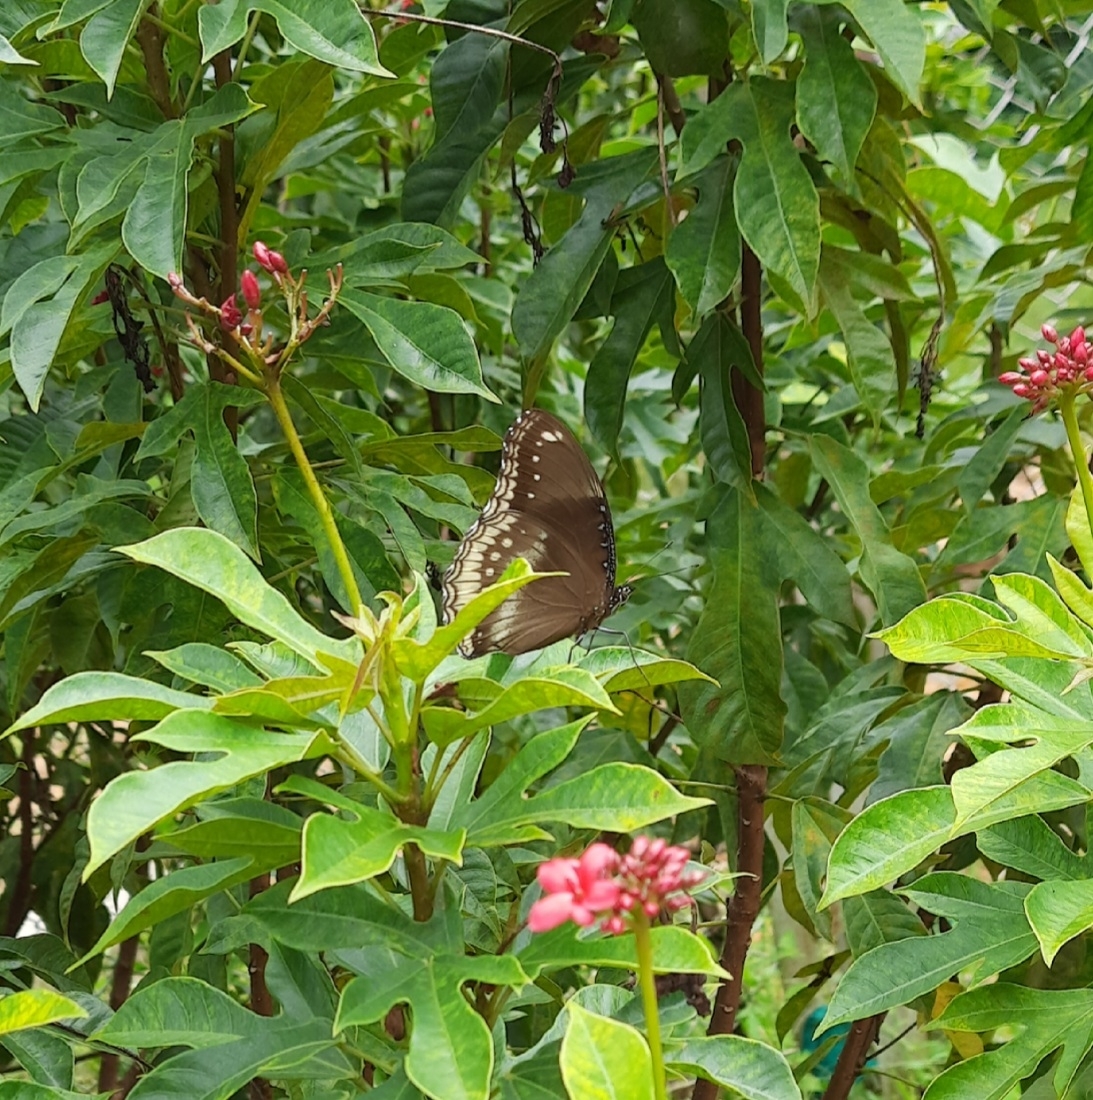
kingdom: Animalia
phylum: Arthropoda
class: Insecta
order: Lepidoptera
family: Nymphalidae
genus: Hypolimnas
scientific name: Hypolimnas bolina
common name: Great eggfly
